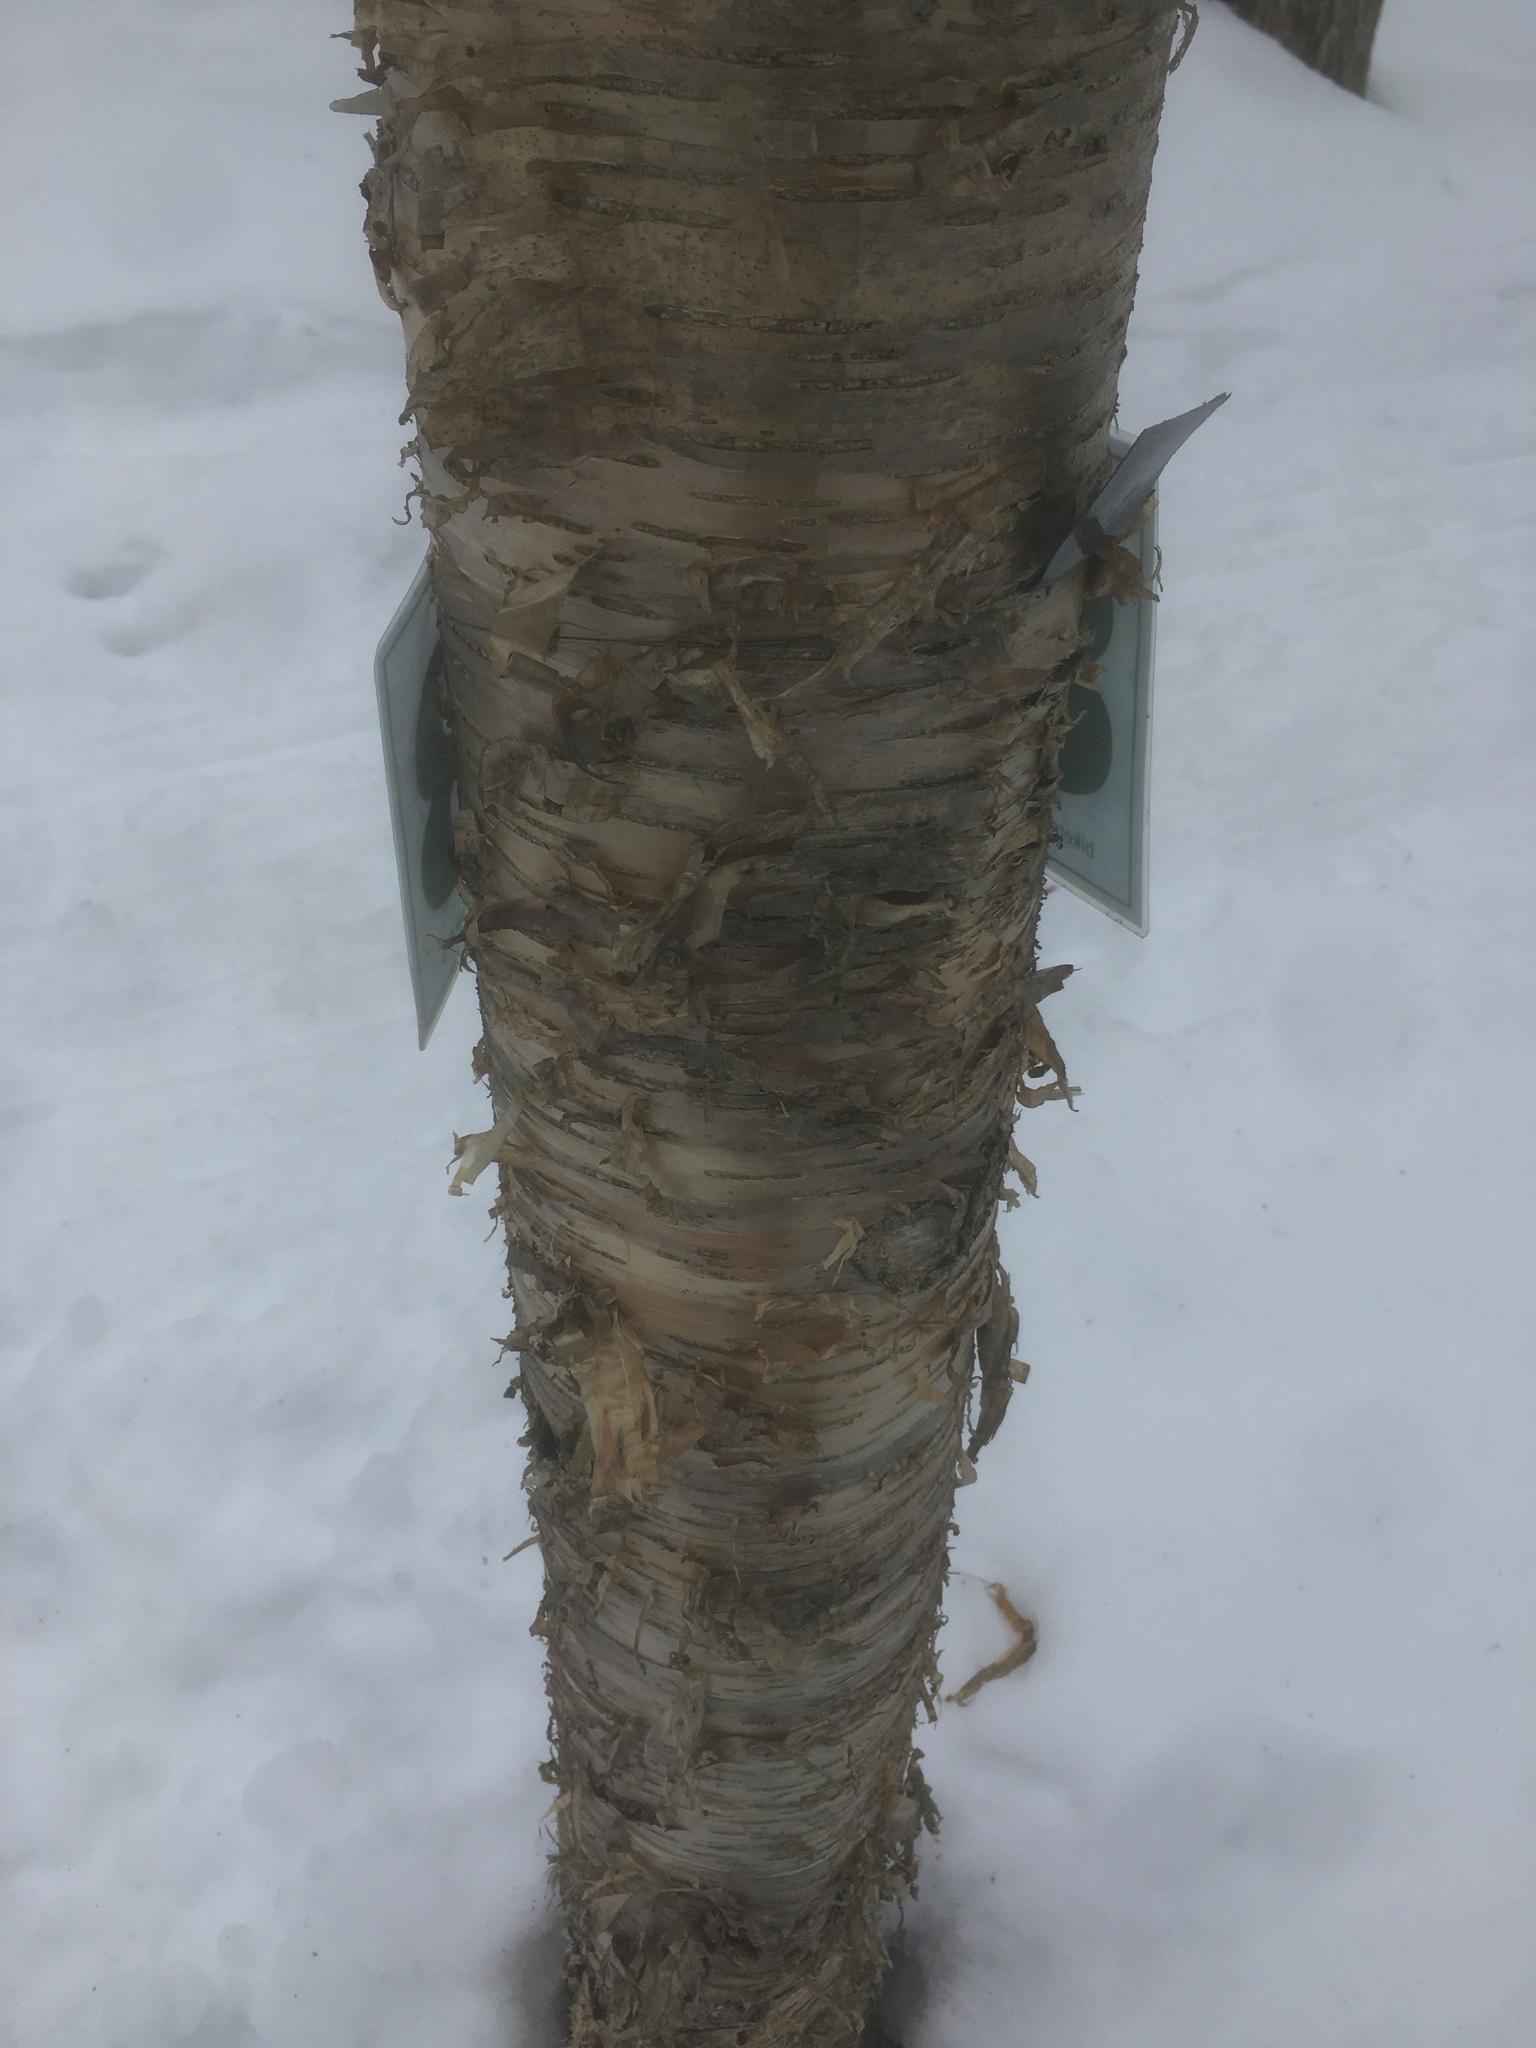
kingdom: Plantae
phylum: Tracheophyta
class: Magnoliopsida
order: Fagales
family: Betulaceae
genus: Betula
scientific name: Betula alleghaniensis
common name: Yellow birch
